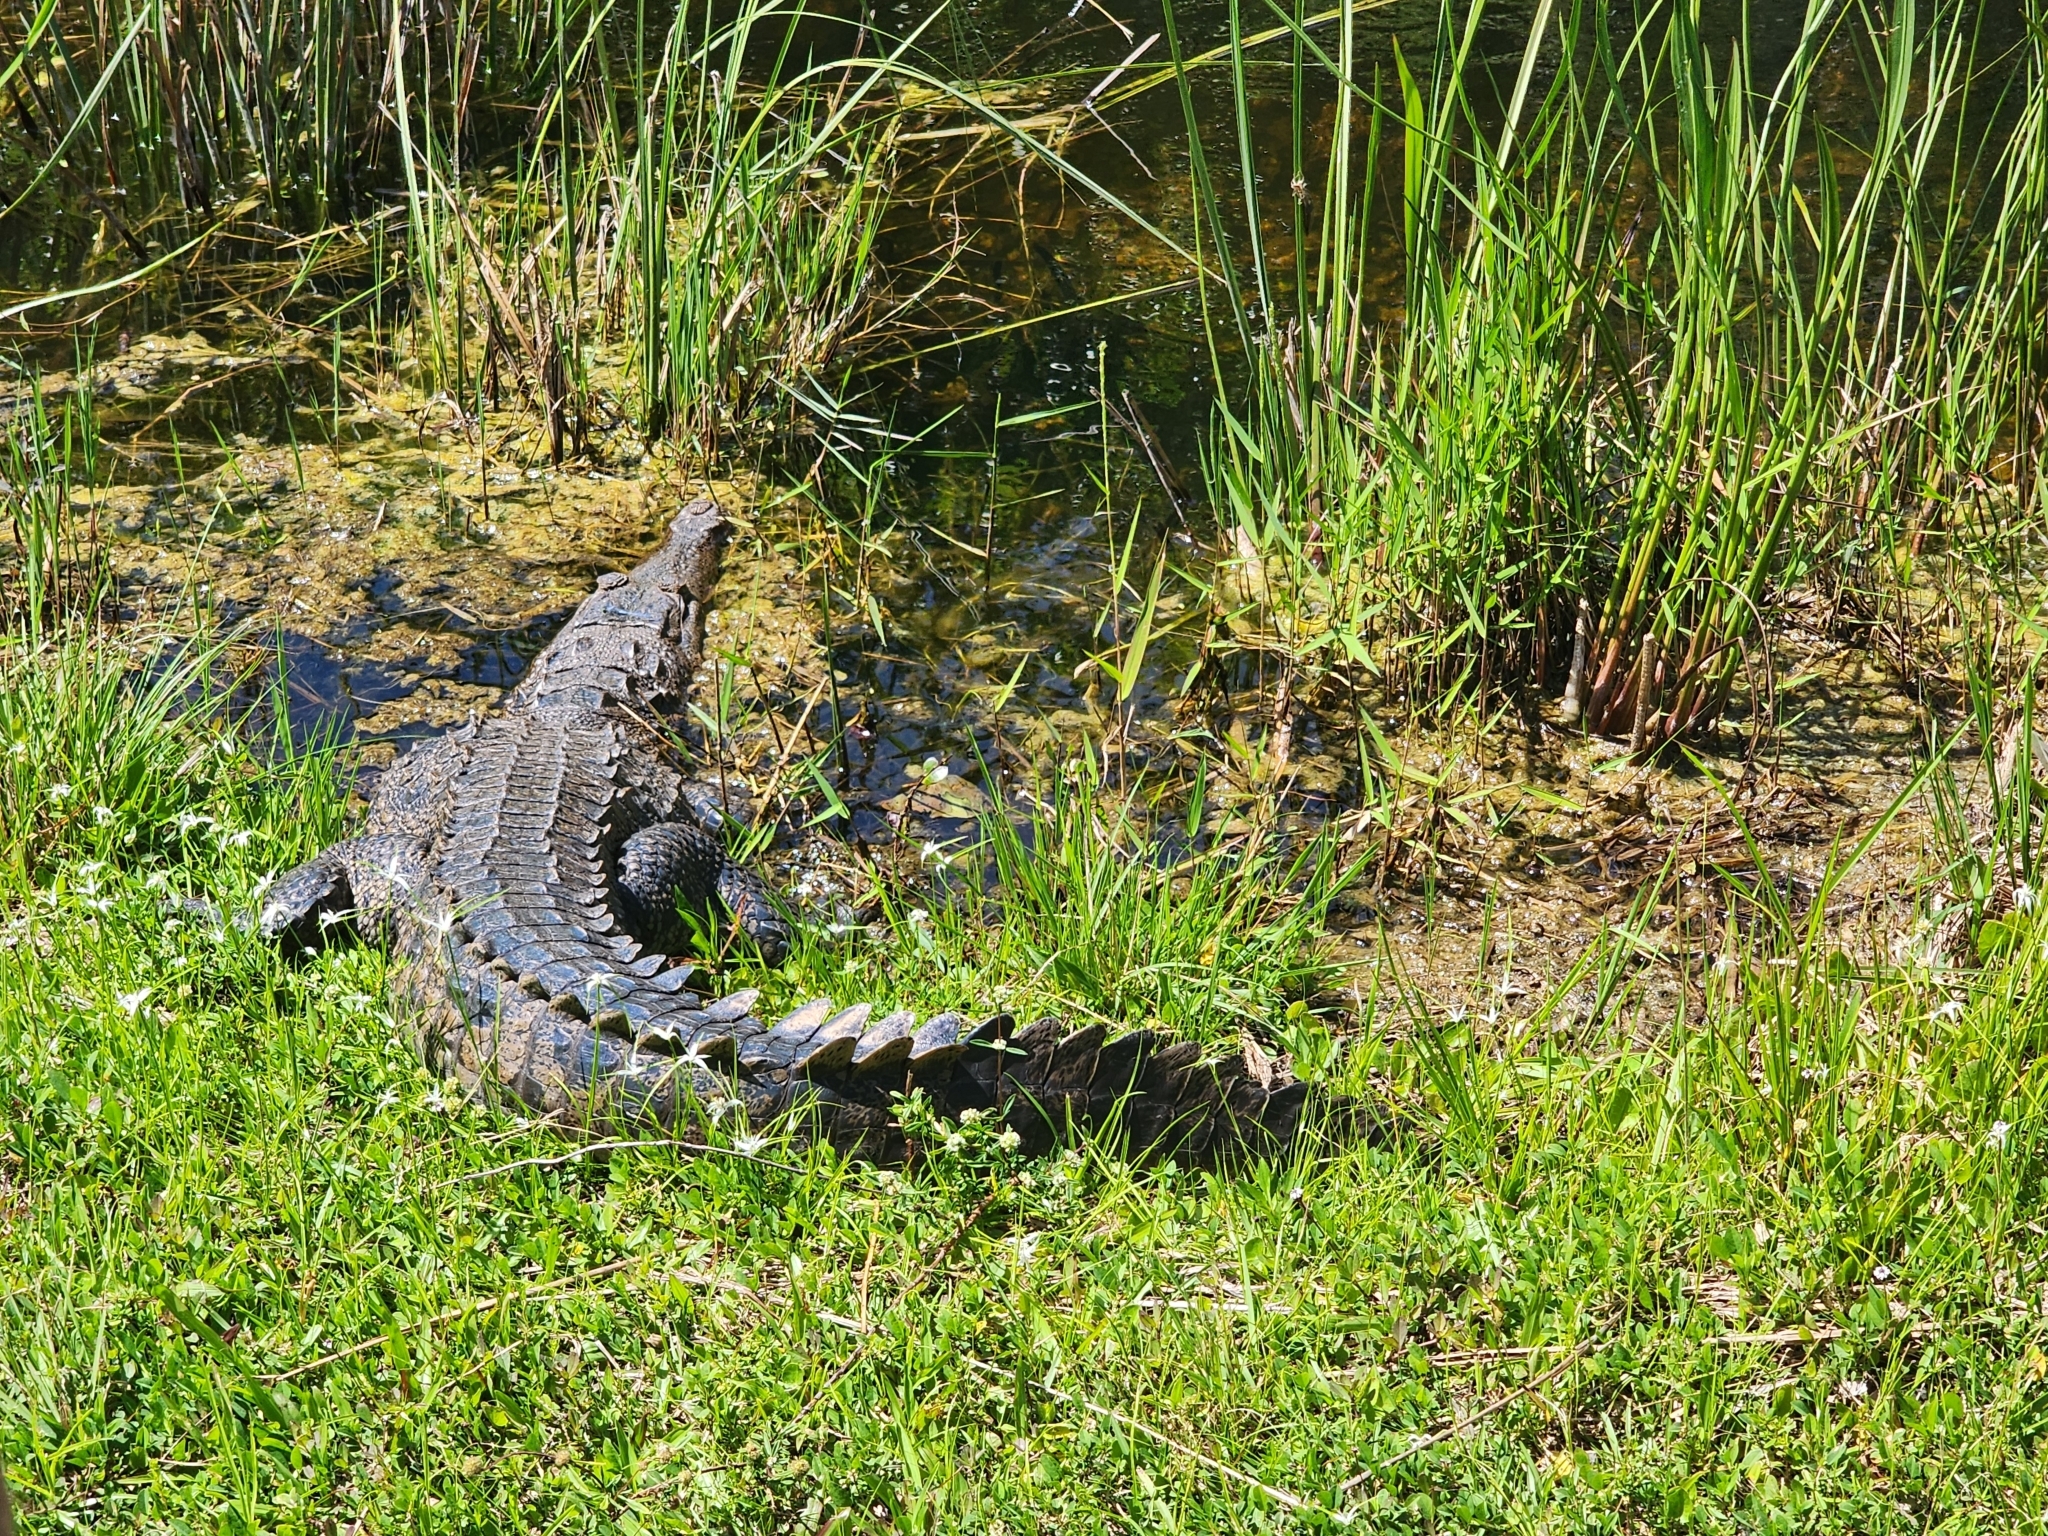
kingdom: Animalia
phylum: Chordata
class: Crocodylia
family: Crocodylidae
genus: Crocodylus
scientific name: Crocodylus acutus
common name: American crocodile
